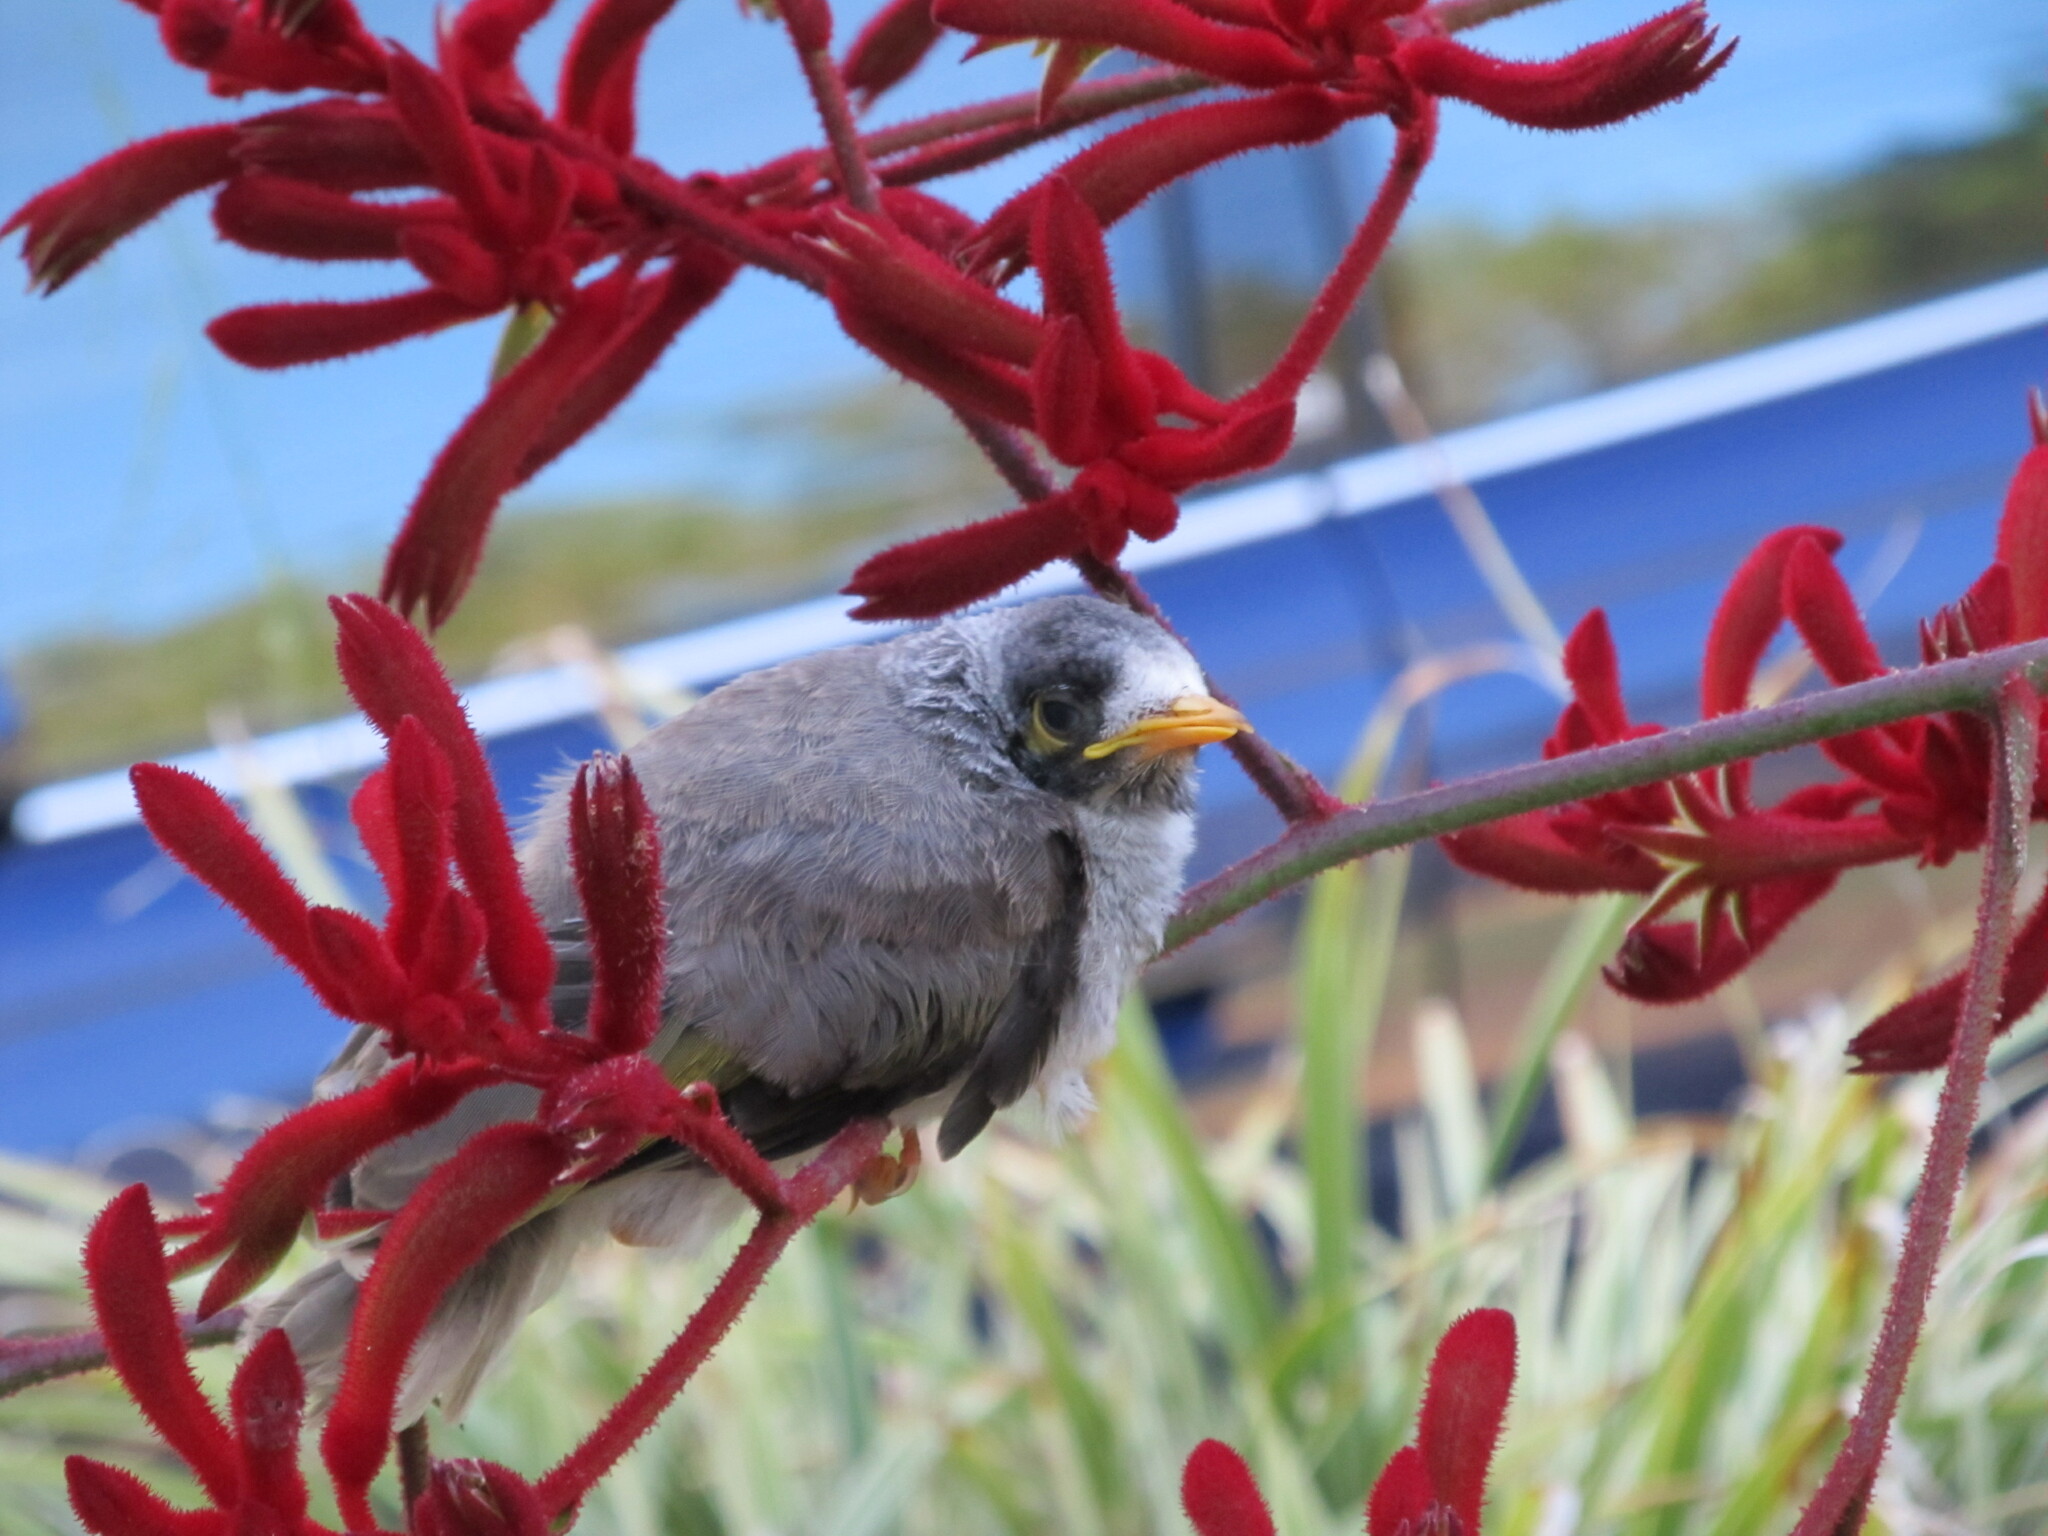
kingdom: Animalia
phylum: Chordata
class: Aves
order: Passeriformes
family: Meliphagidae
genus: Manorina
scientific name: Manorina melanocephala
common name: Noisy miner
